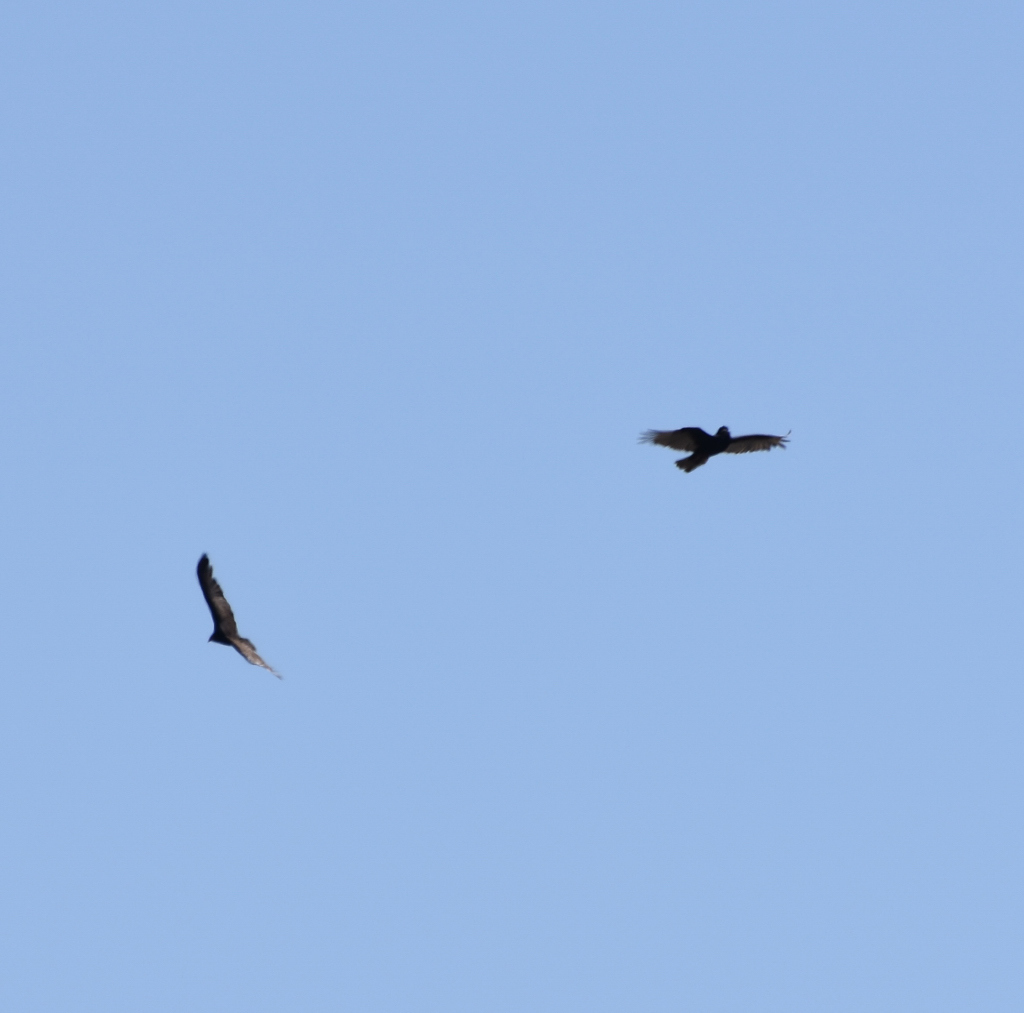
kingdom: Animalia
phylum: Chordata
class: Aves
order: Accipitriformes
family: Cathartidae
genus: Cathartes
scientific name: Cathartes aura
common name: Turkey vulture
